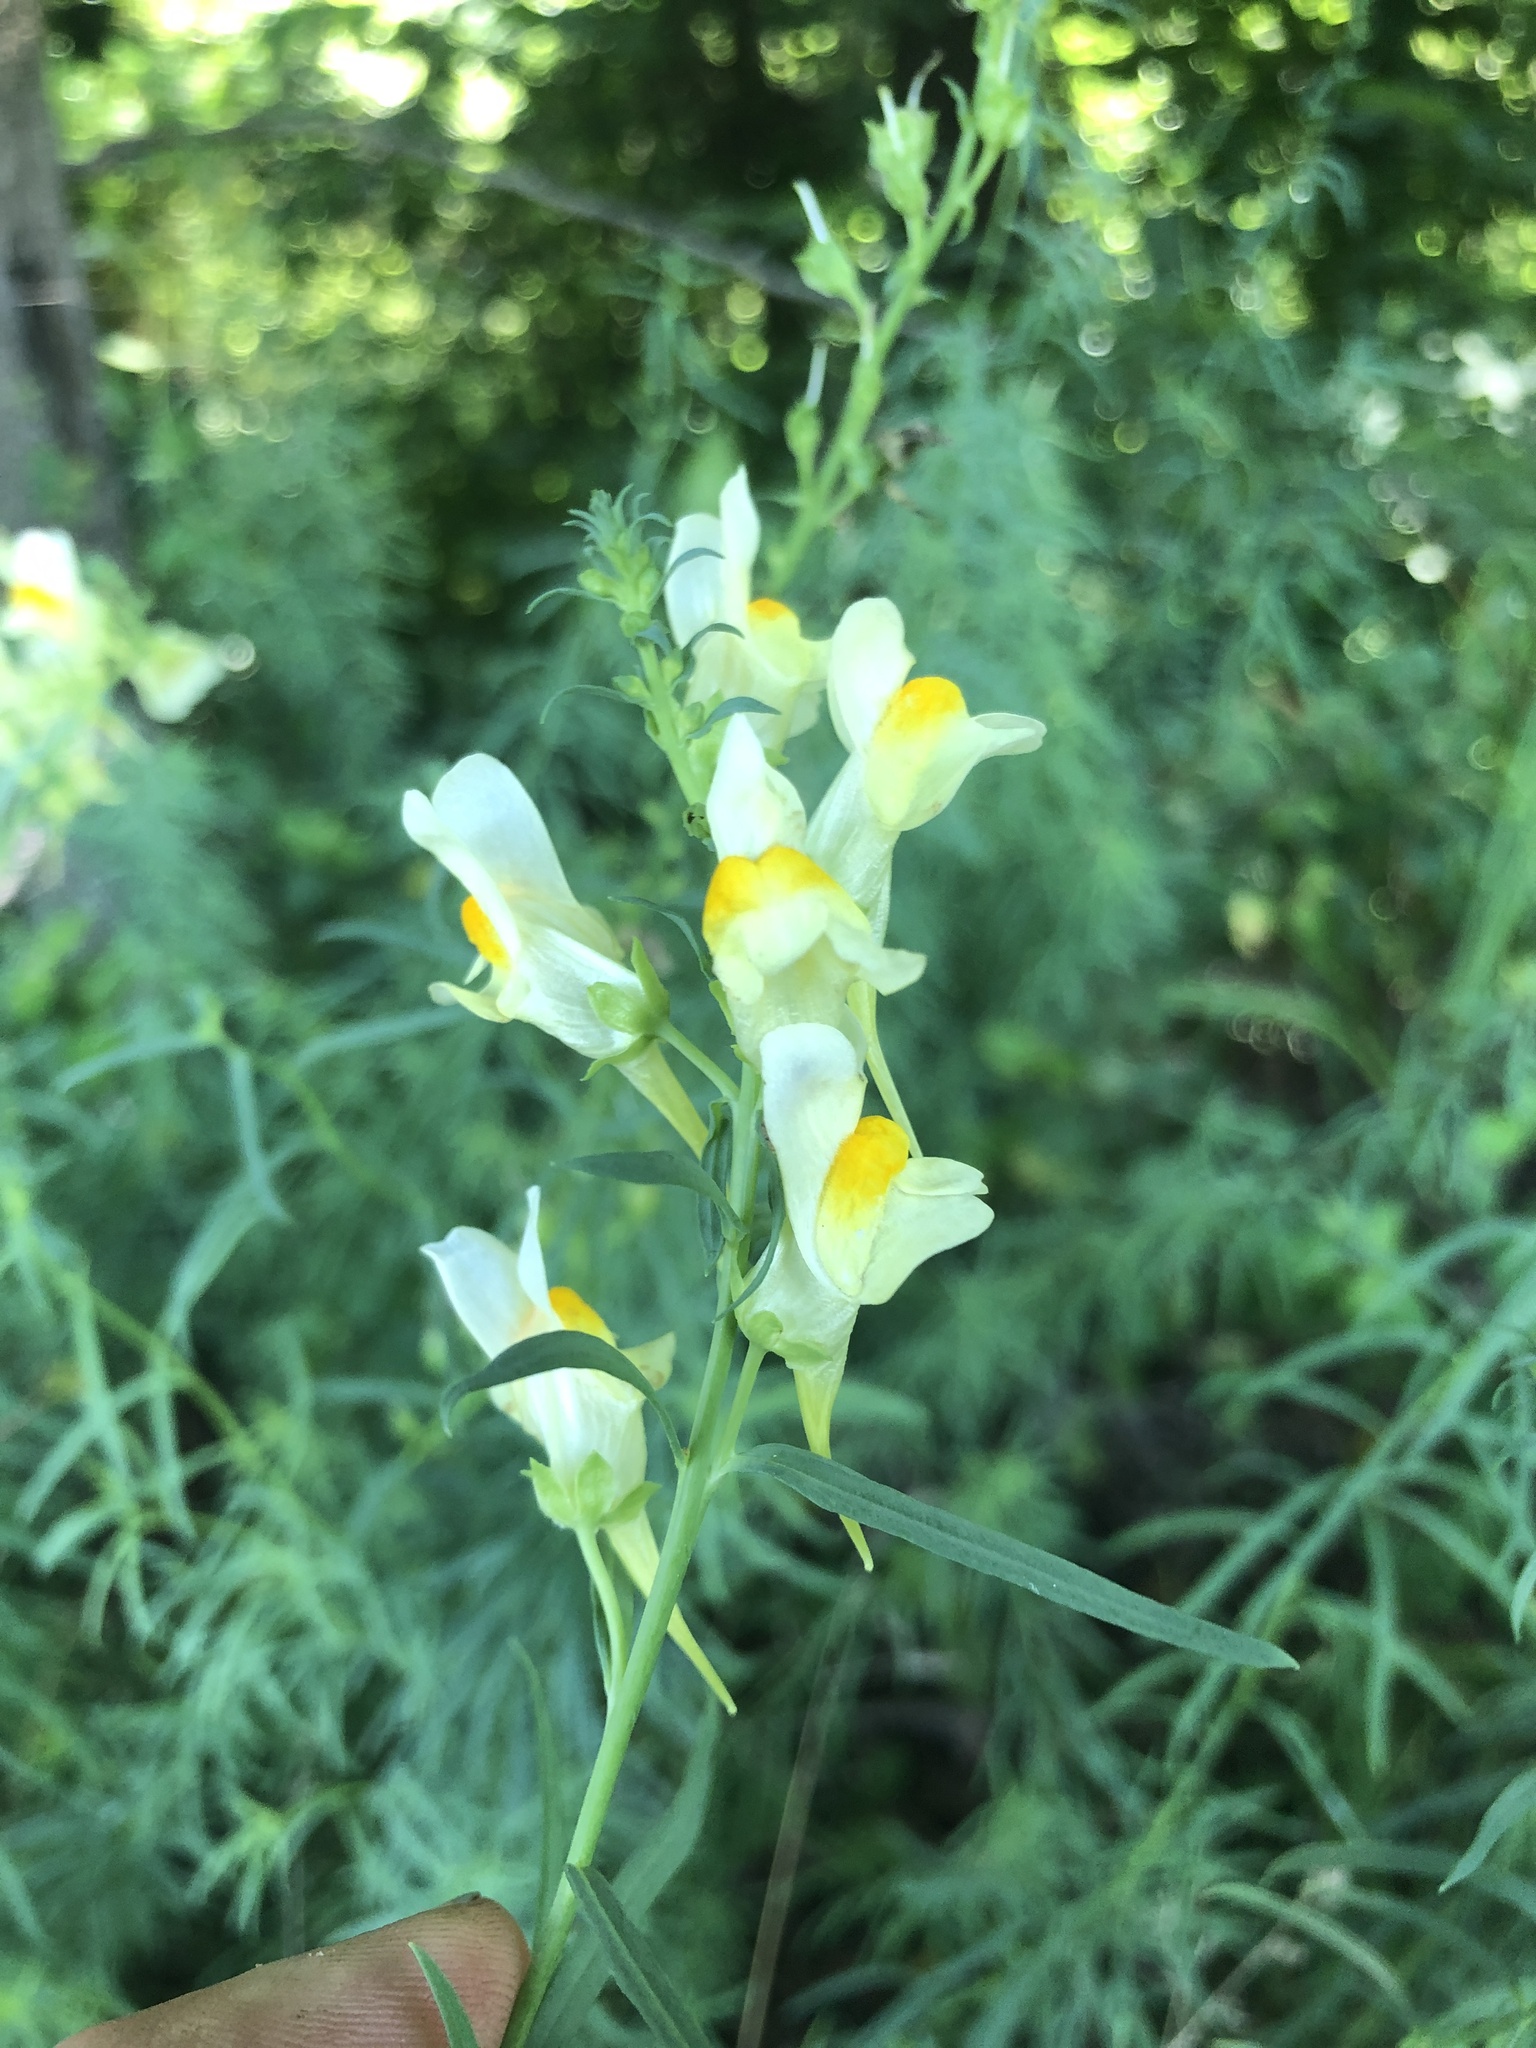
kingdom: Plantae
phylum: Tracheophyta
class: Magnoliopsida
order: Lamiales
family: Plantaginaceae
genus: Linaria
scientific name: Linaria vulgaris
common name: Butter and eggs
